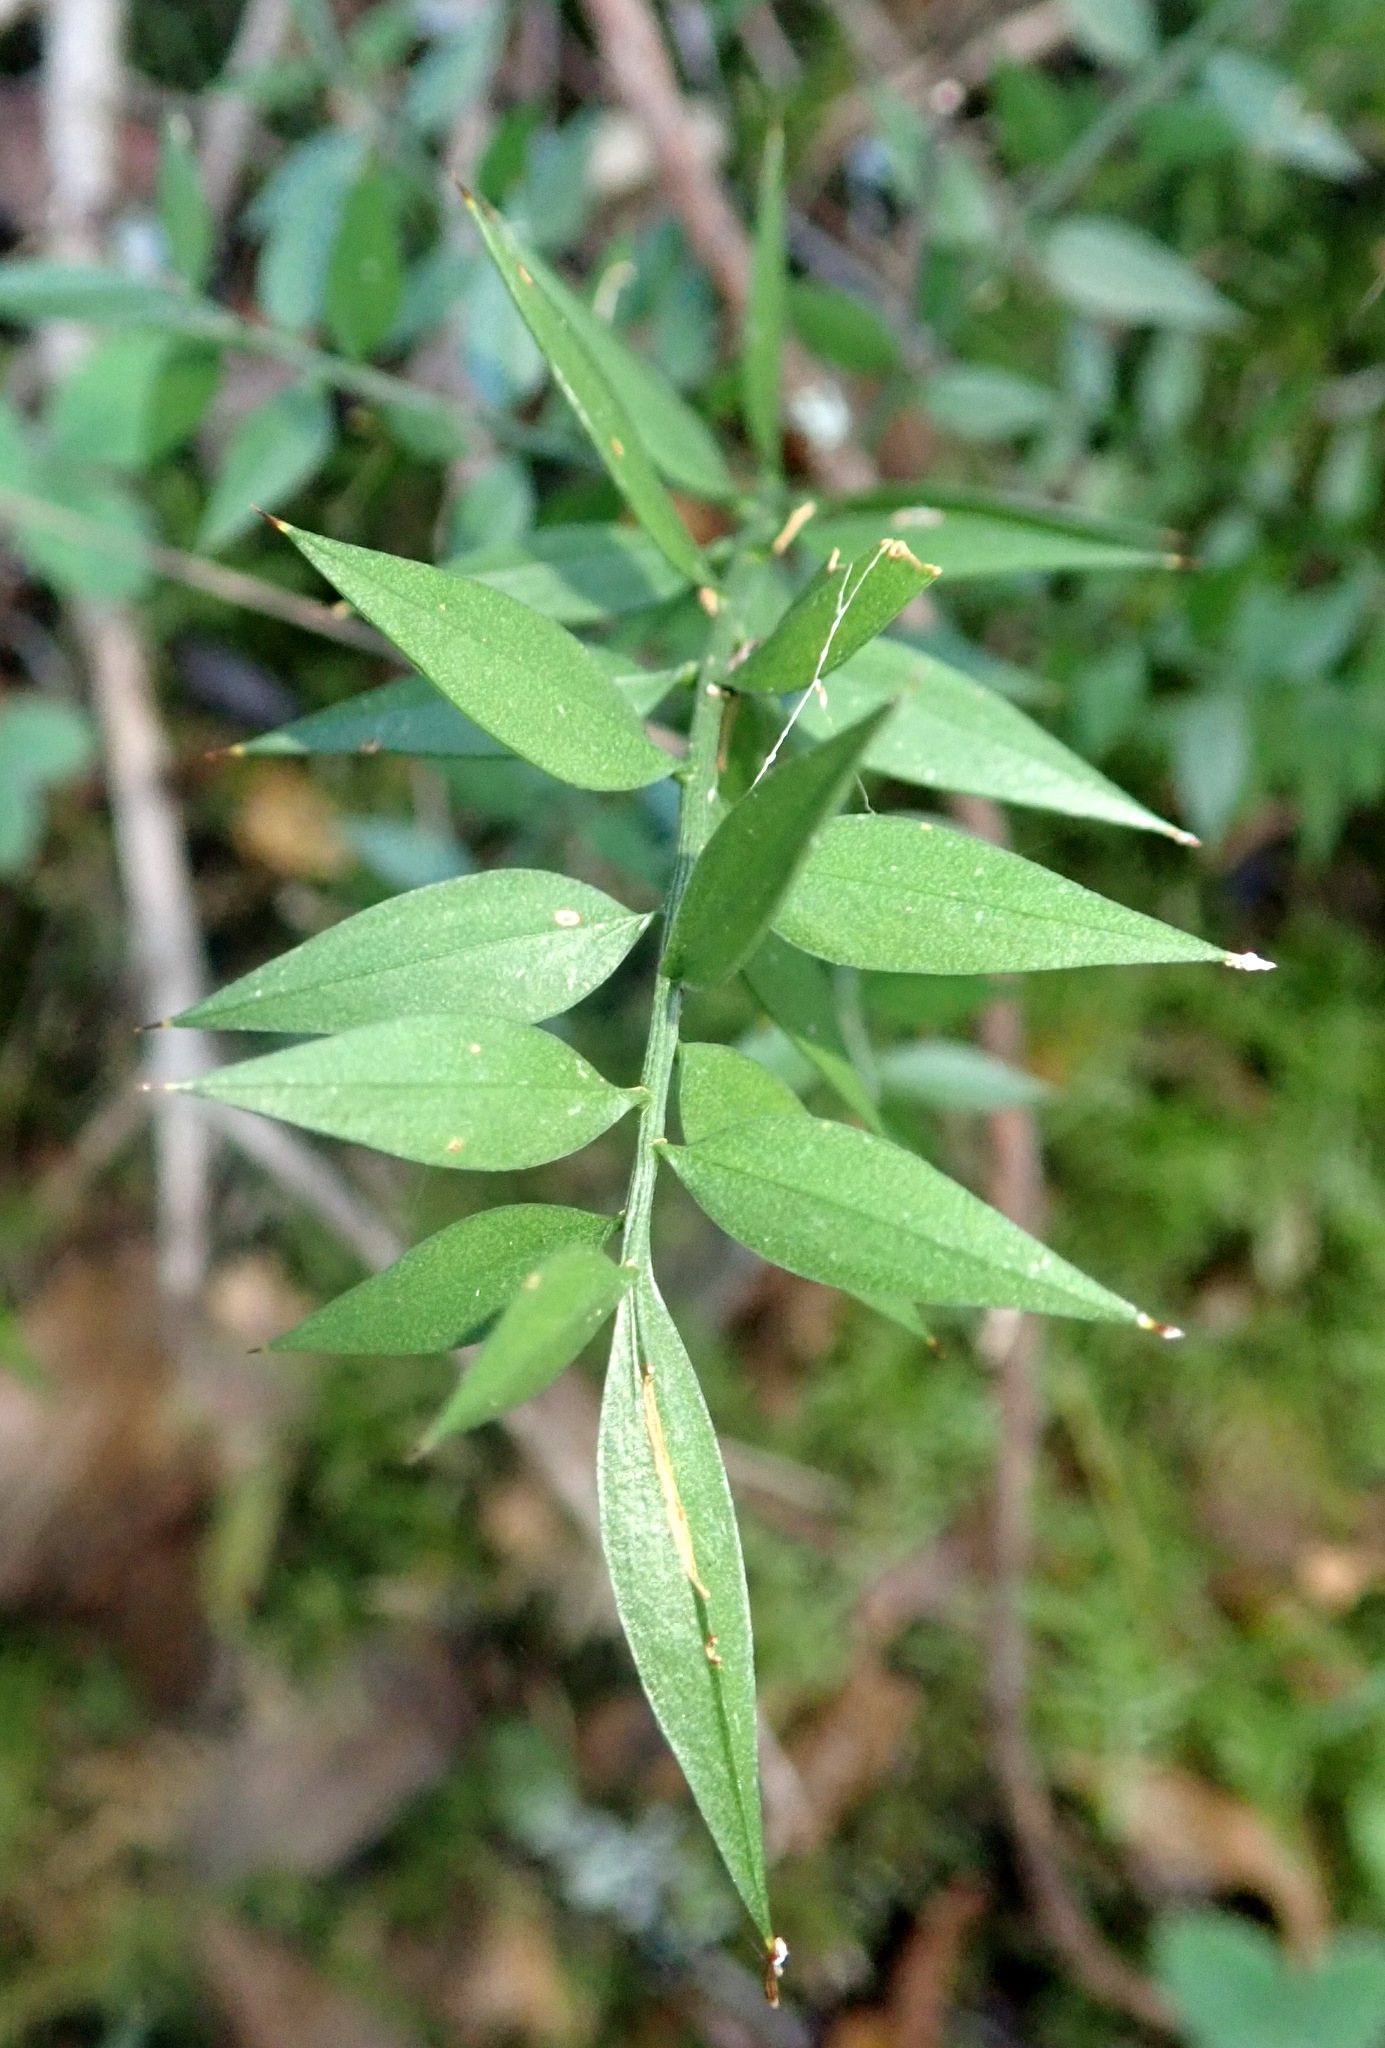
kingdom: Plantae
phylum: Tracheophyta
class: Liliopsida
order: Asparagales
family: Asparagaceae
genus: Ruscus
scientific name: Ruscus aculeatus
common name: Butcher's-broom
